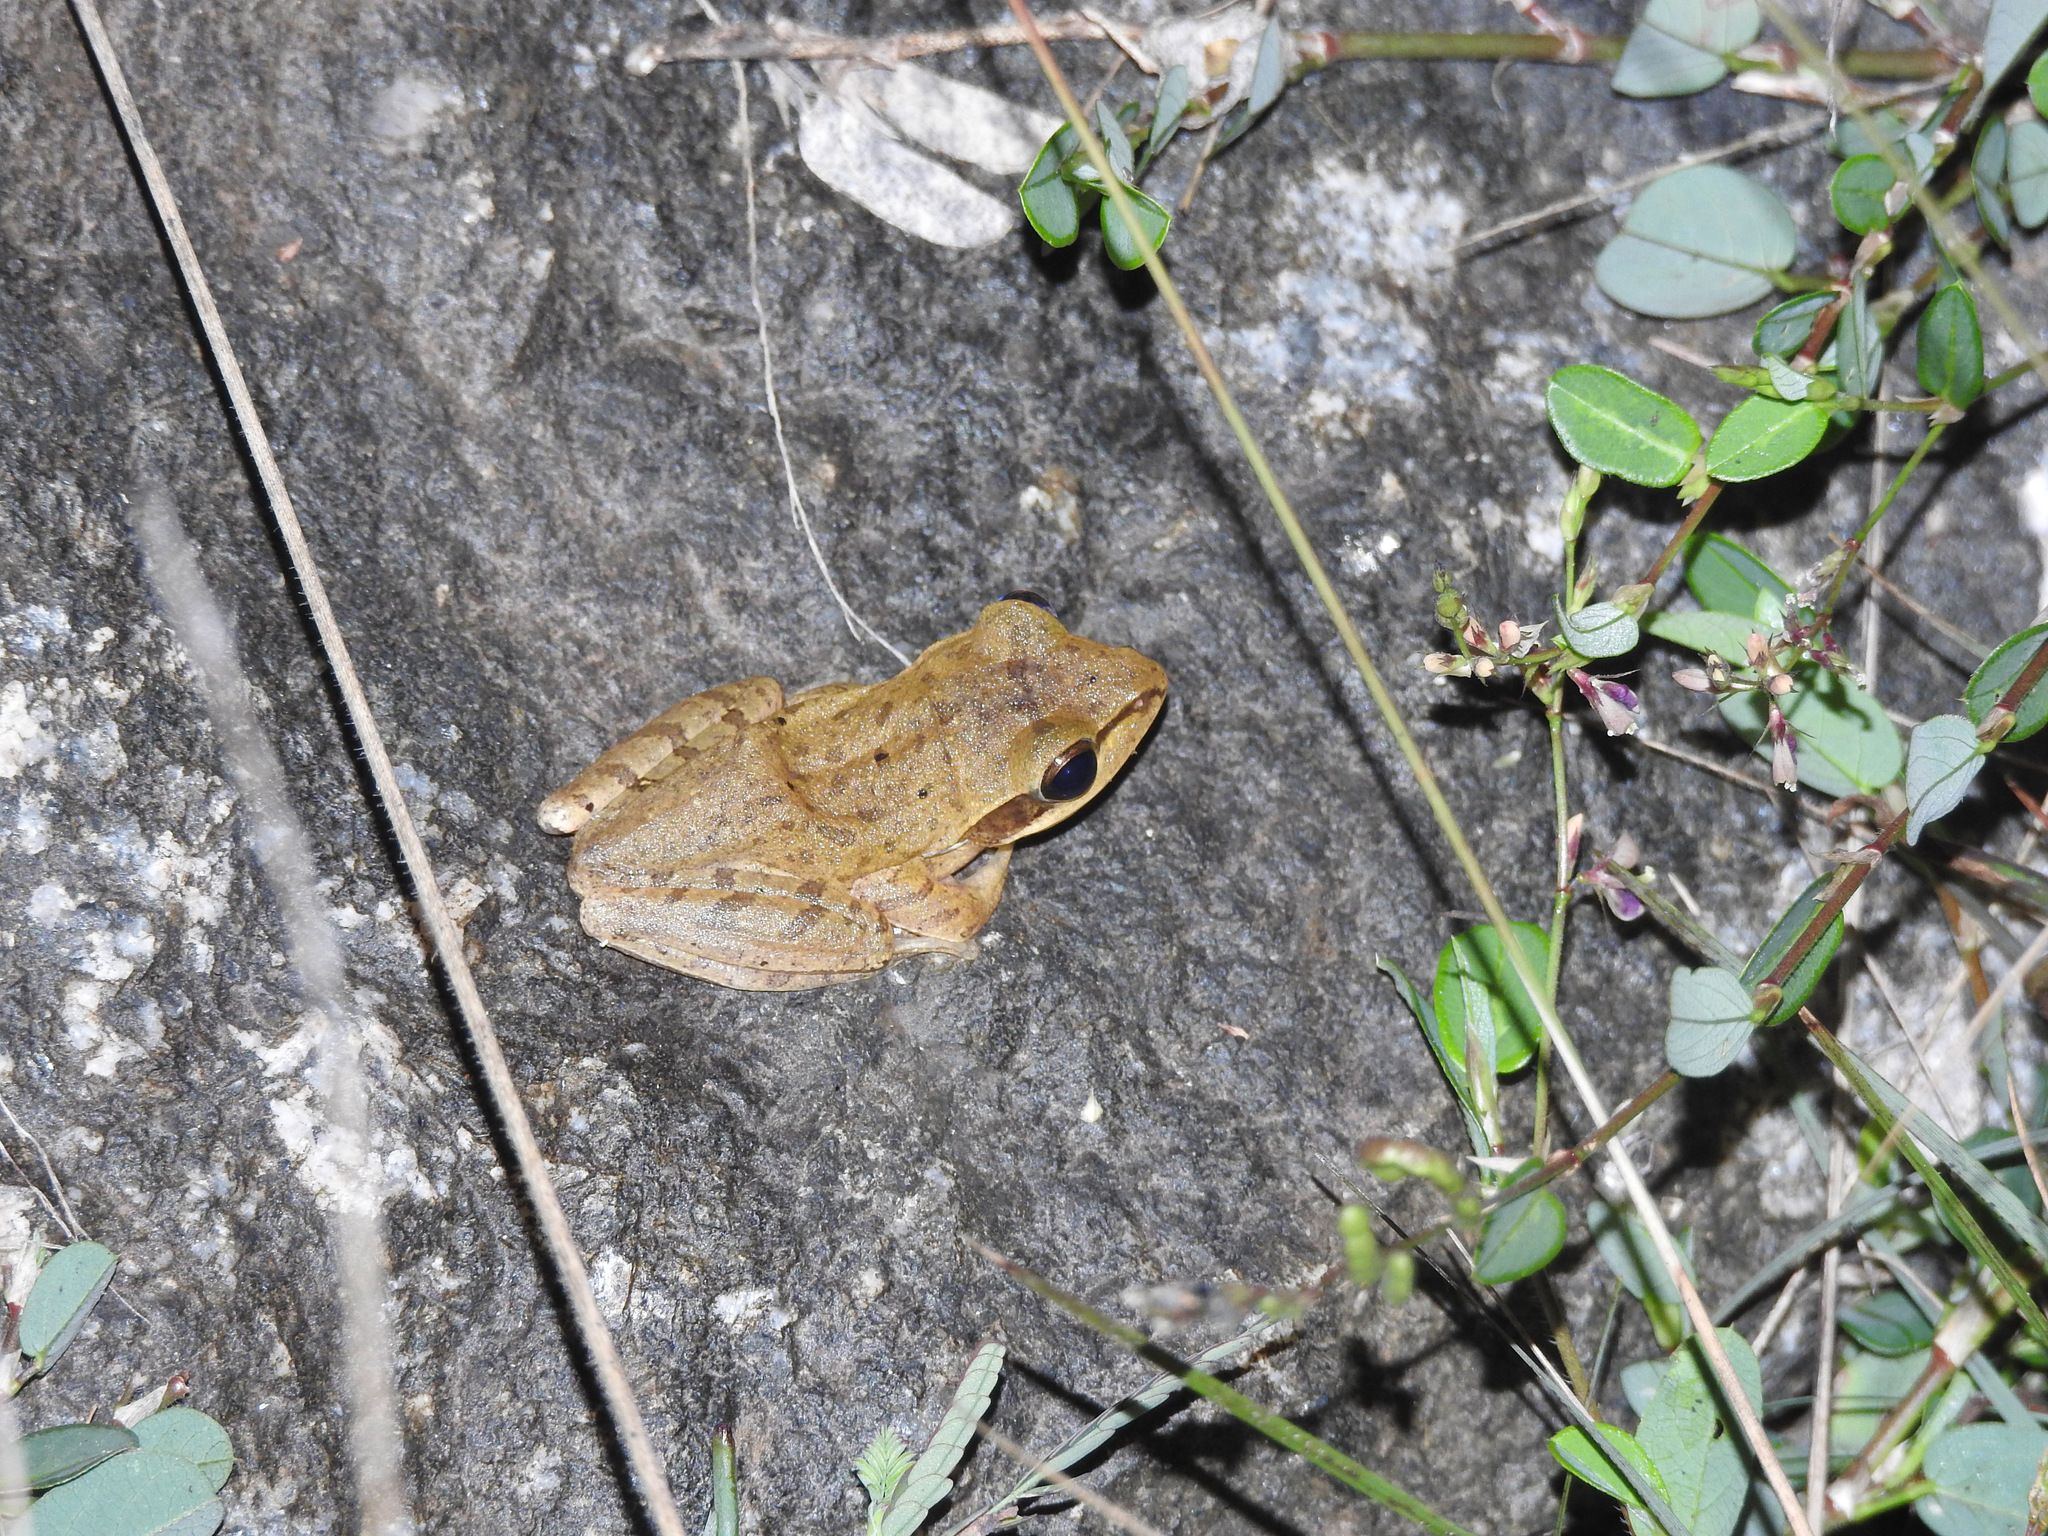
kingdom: Animalia
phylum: Chordata
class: Amphibia
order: Anura
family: Rhacophoridae
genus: Polypedates
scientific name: Polypedates maculatus
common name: Himalayan tree frog
